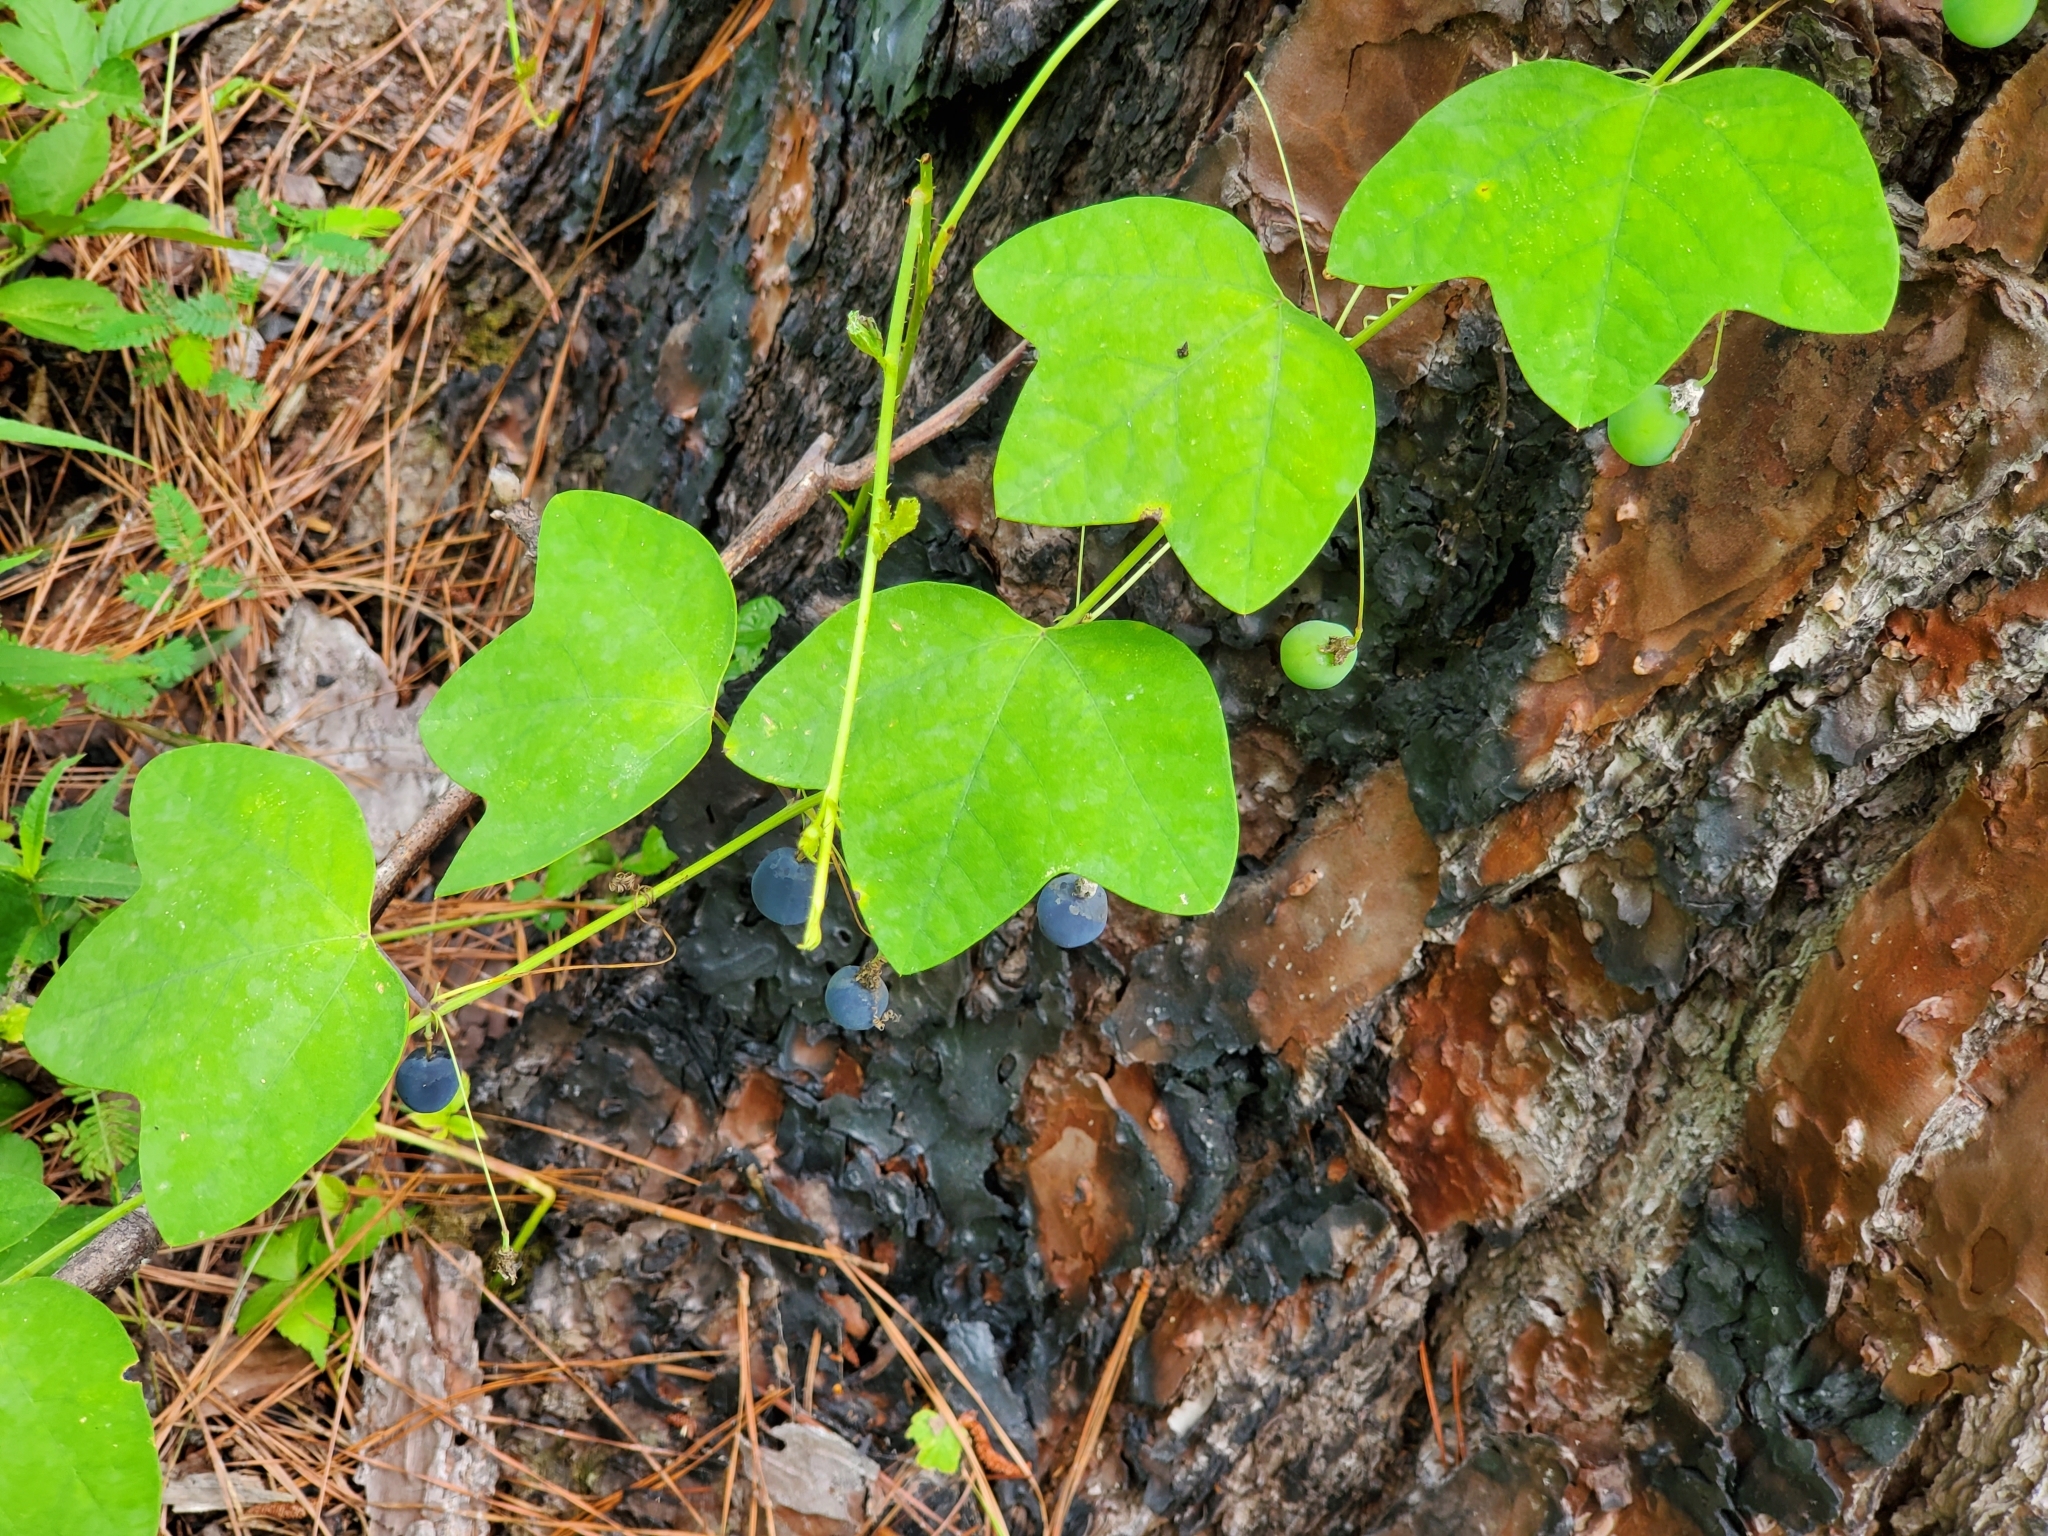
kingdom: Plantae
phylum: Tracheophyta
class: Magnoliopsida
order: Malpighiales
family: Passifloraceae
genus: Passiflora
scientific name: Passiflora lutea
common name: Yellow passionflower
